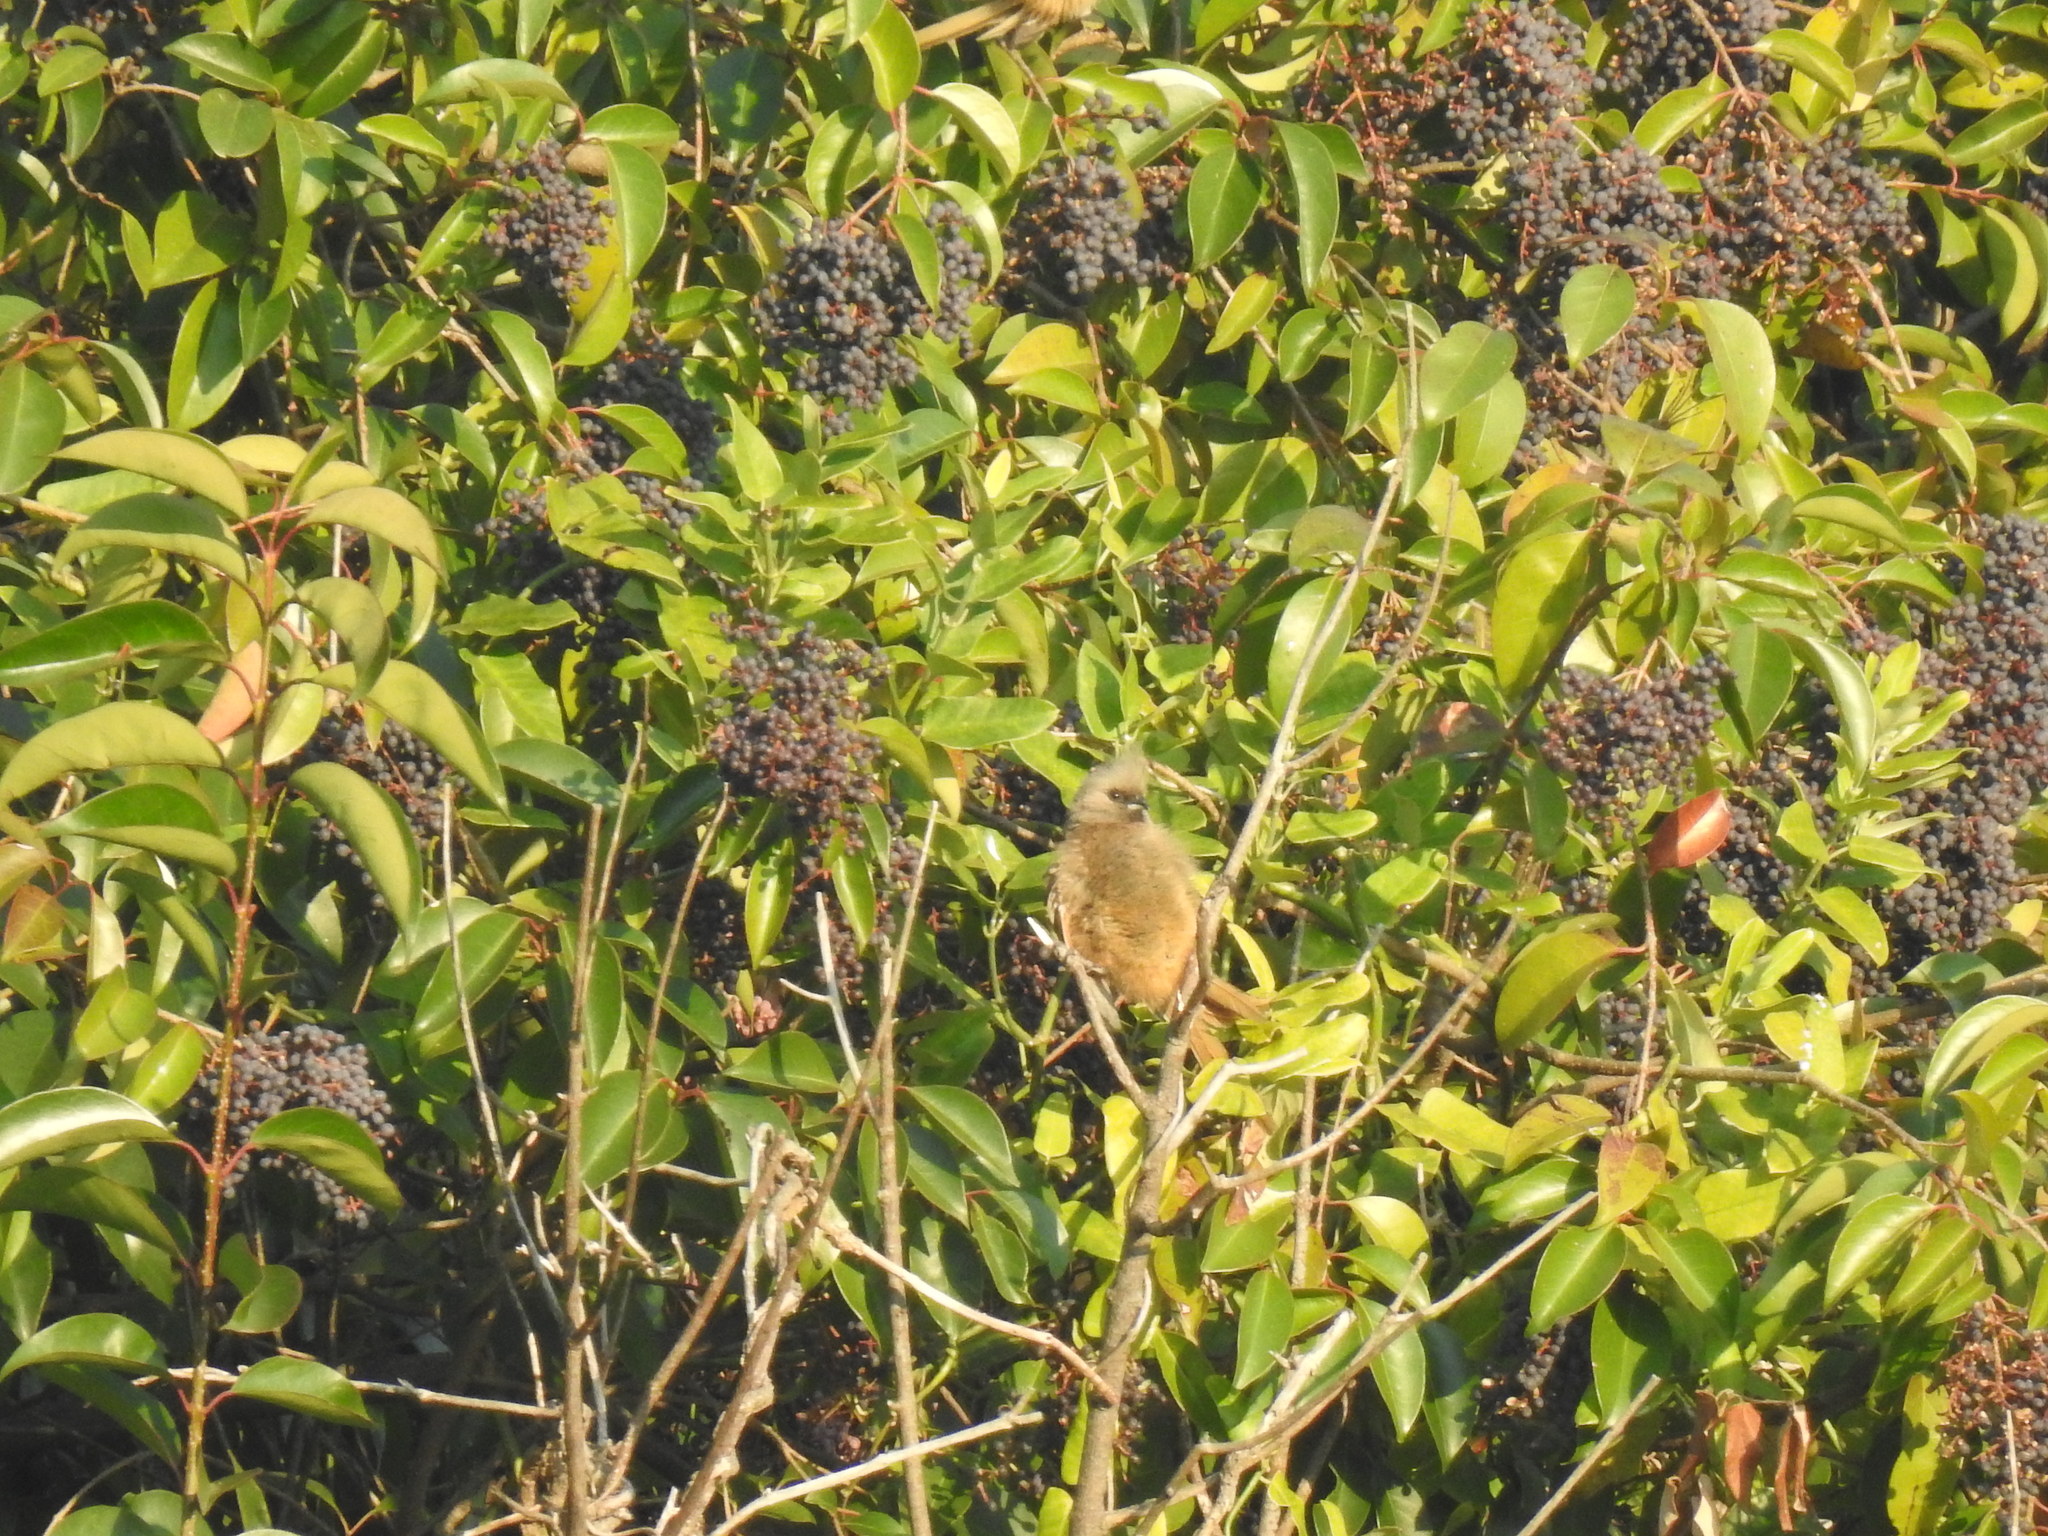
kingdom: Animalia
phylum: Chordata
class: Aves
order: Coliiformes
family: Coliidae
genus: Colius
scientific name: Colius striatus
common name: Speckled mousebird
